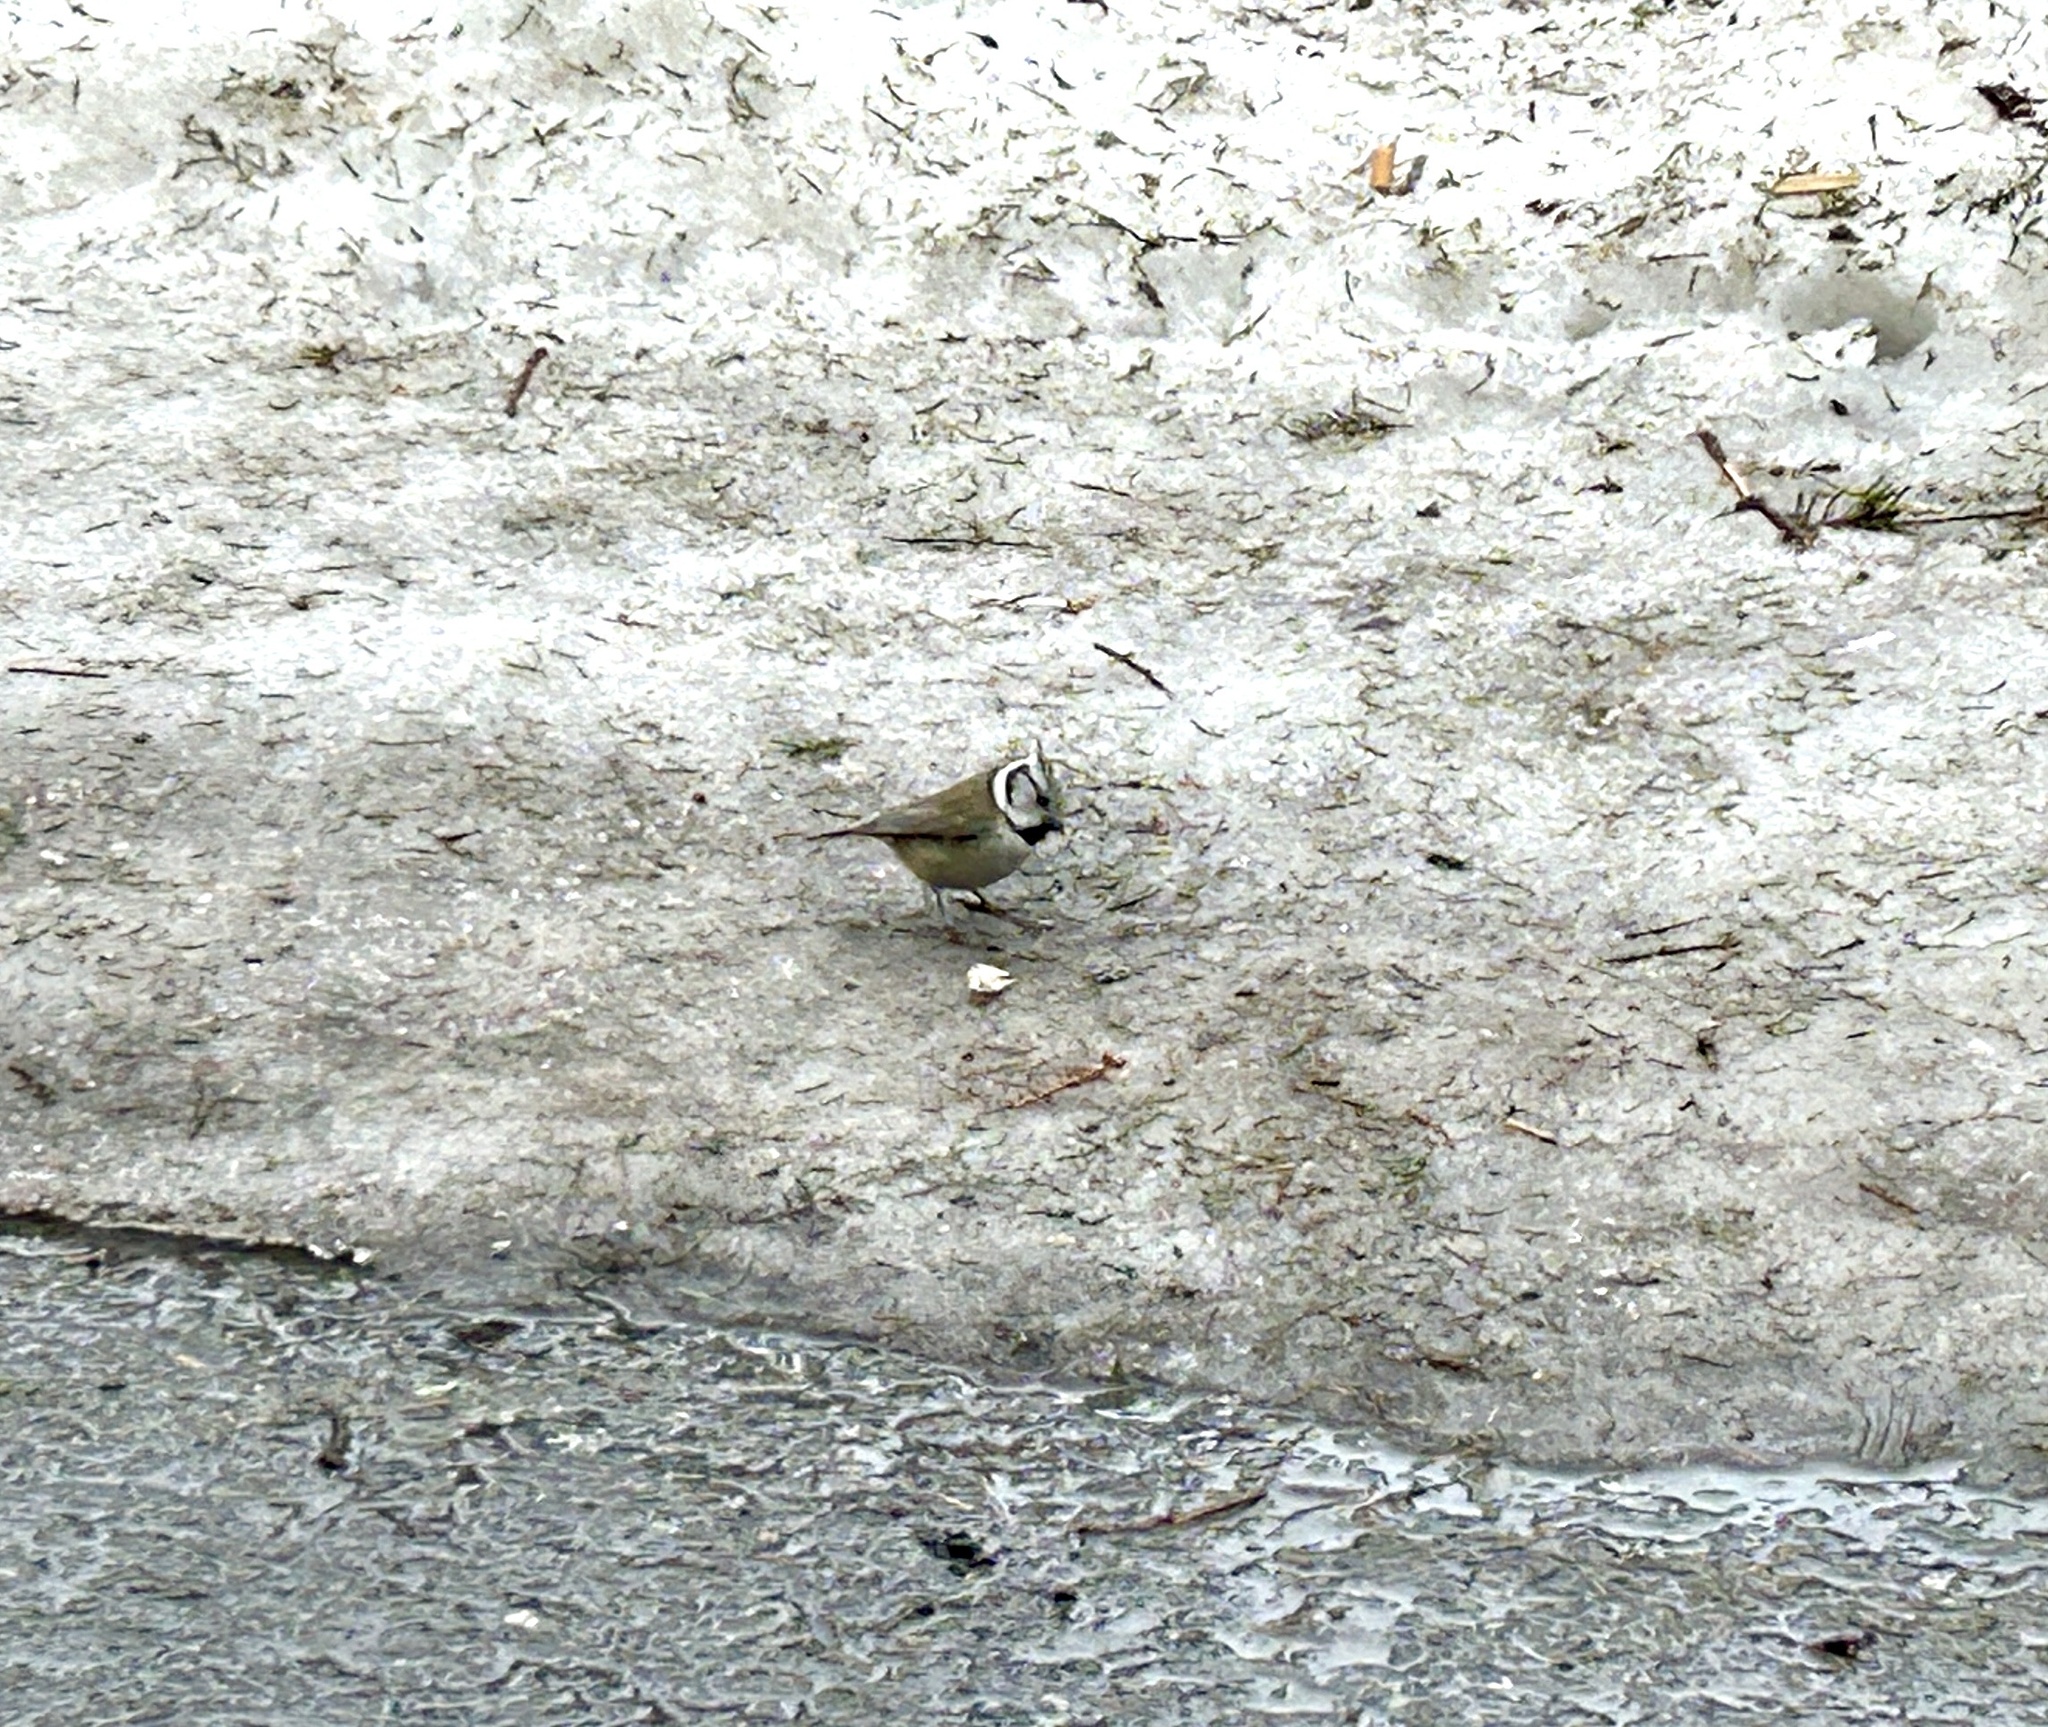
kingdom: Animalia
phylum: Chordata
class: Aves
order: Passeriformes
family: Paridae
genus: Lophophanes
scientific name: Lophophanes cristatus
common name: European crested tit
